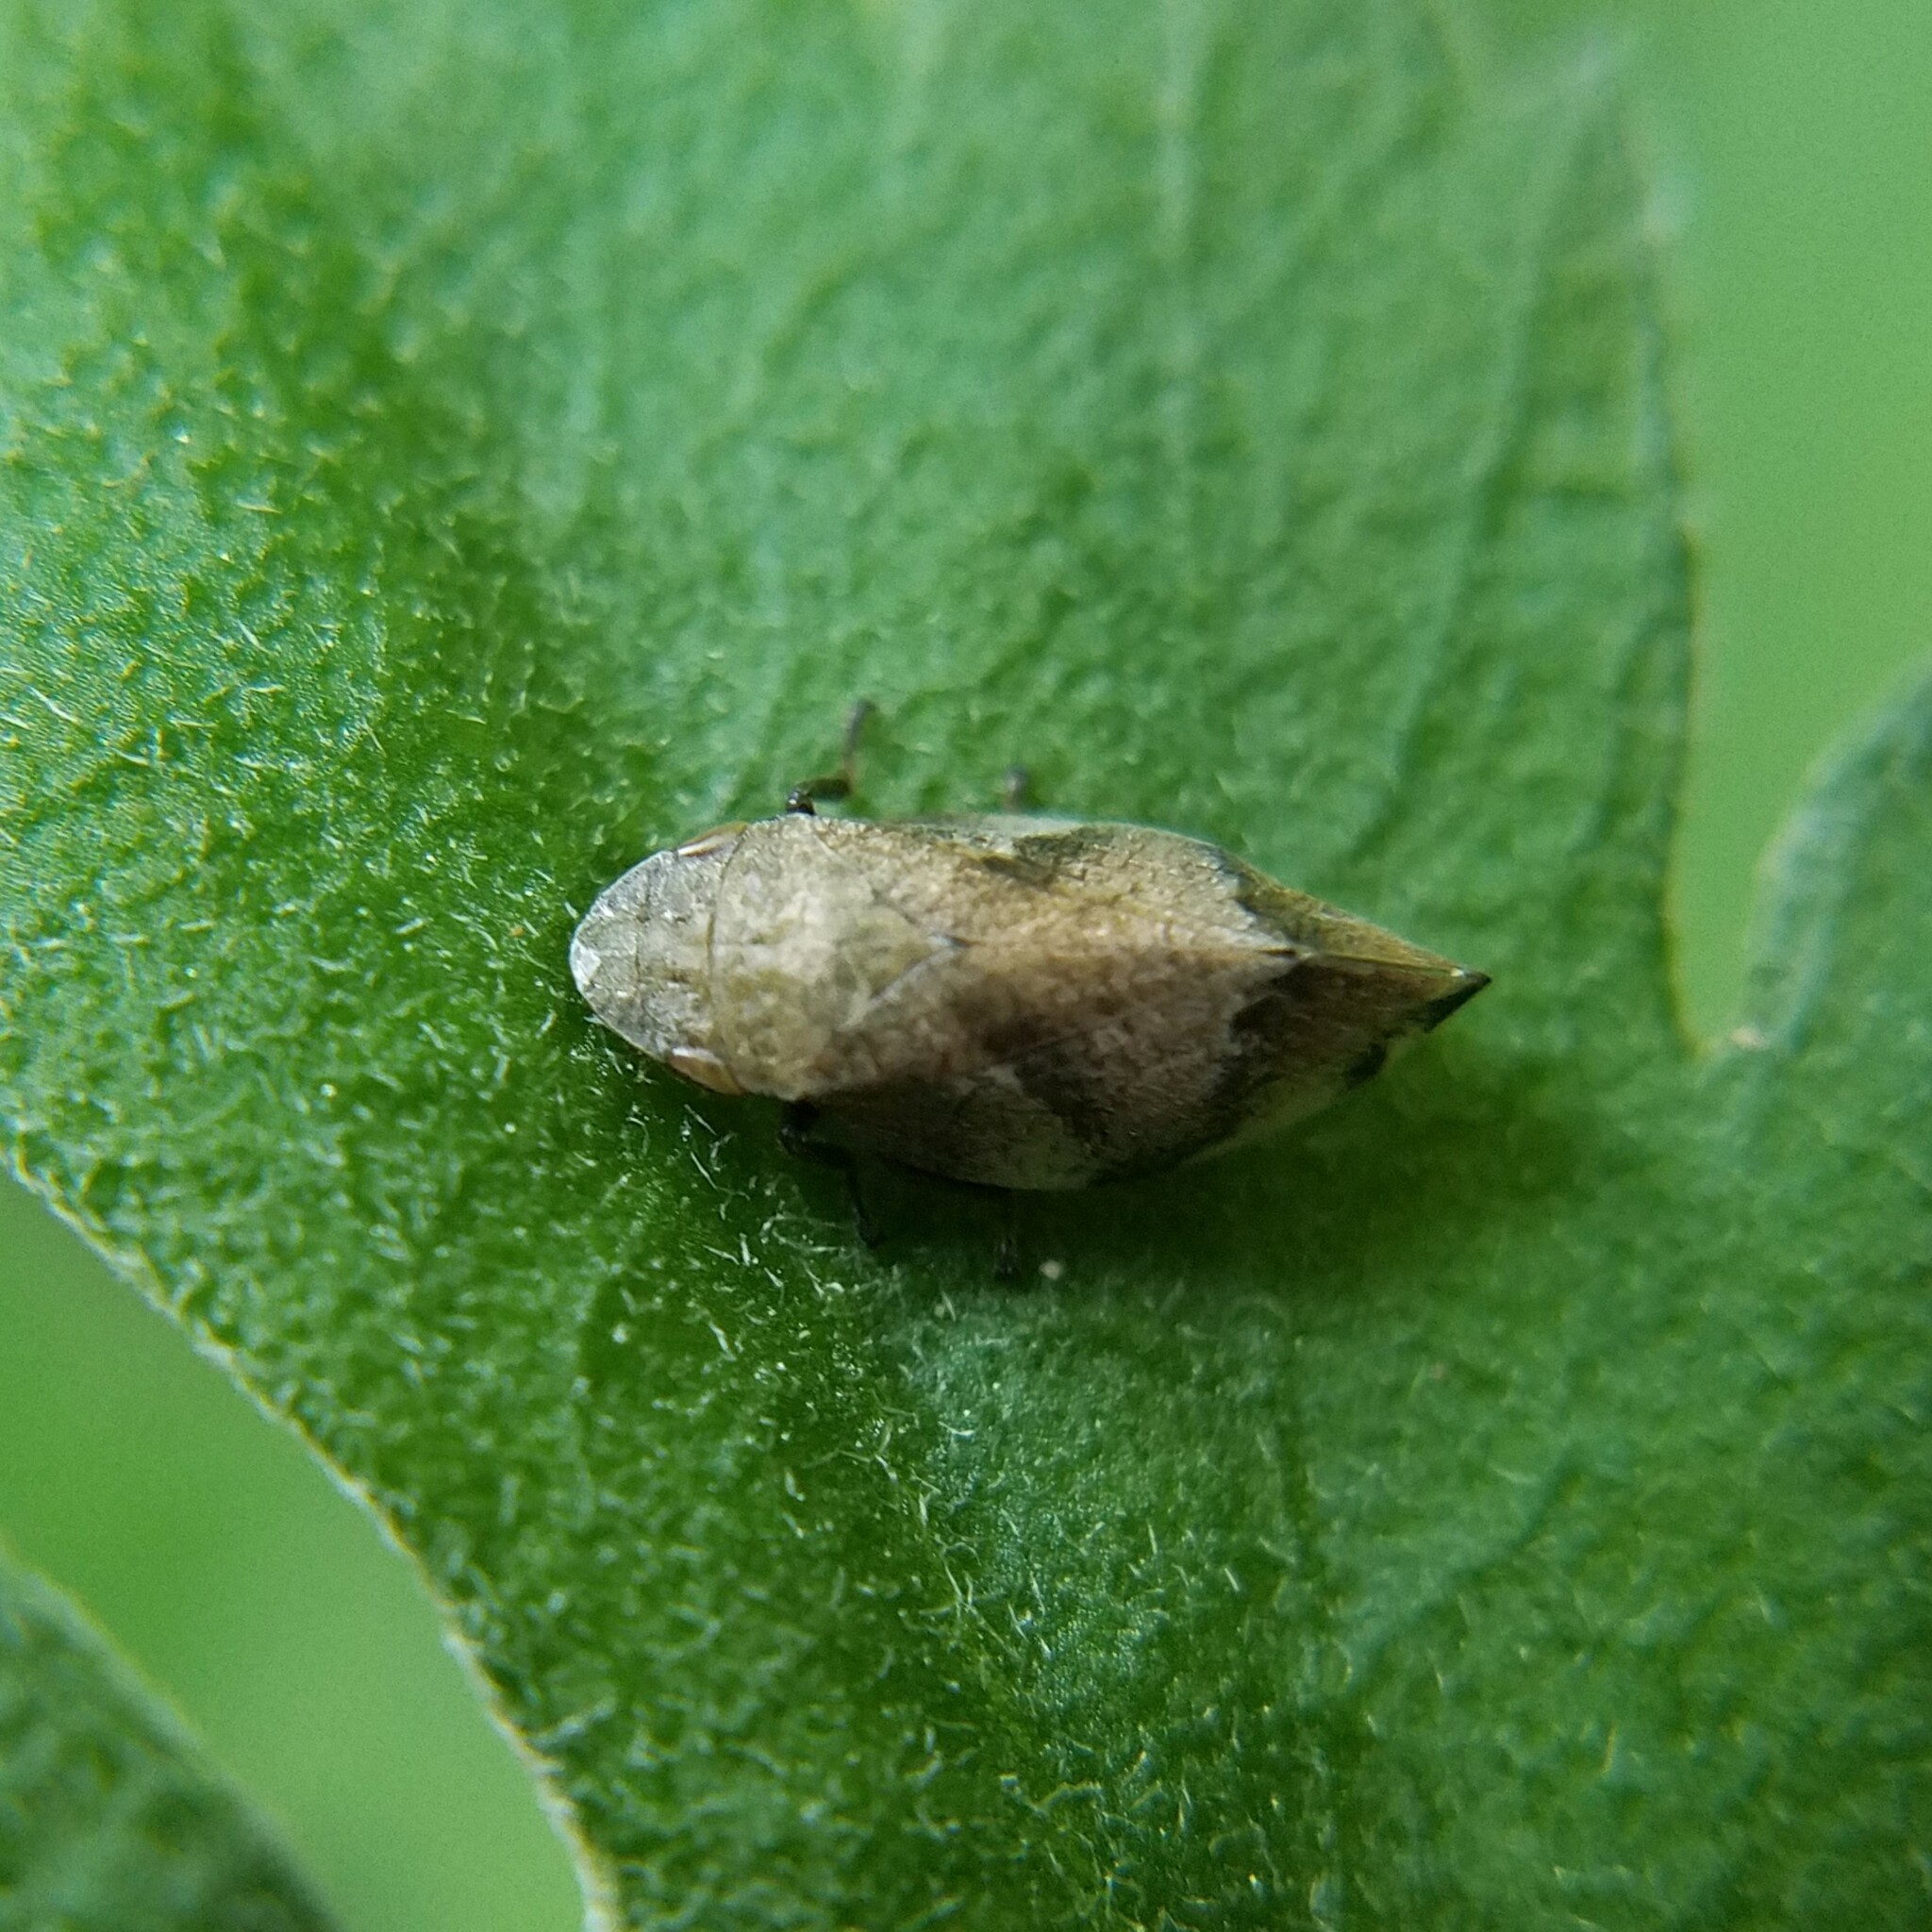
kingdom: Animalia
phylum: Arthropoda
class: Insecta
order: Hemiptera
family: Aphrophoridae
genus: Lepyronia
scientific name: Lepyronia quadrangularis
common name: Diamond-backed spittlebug
